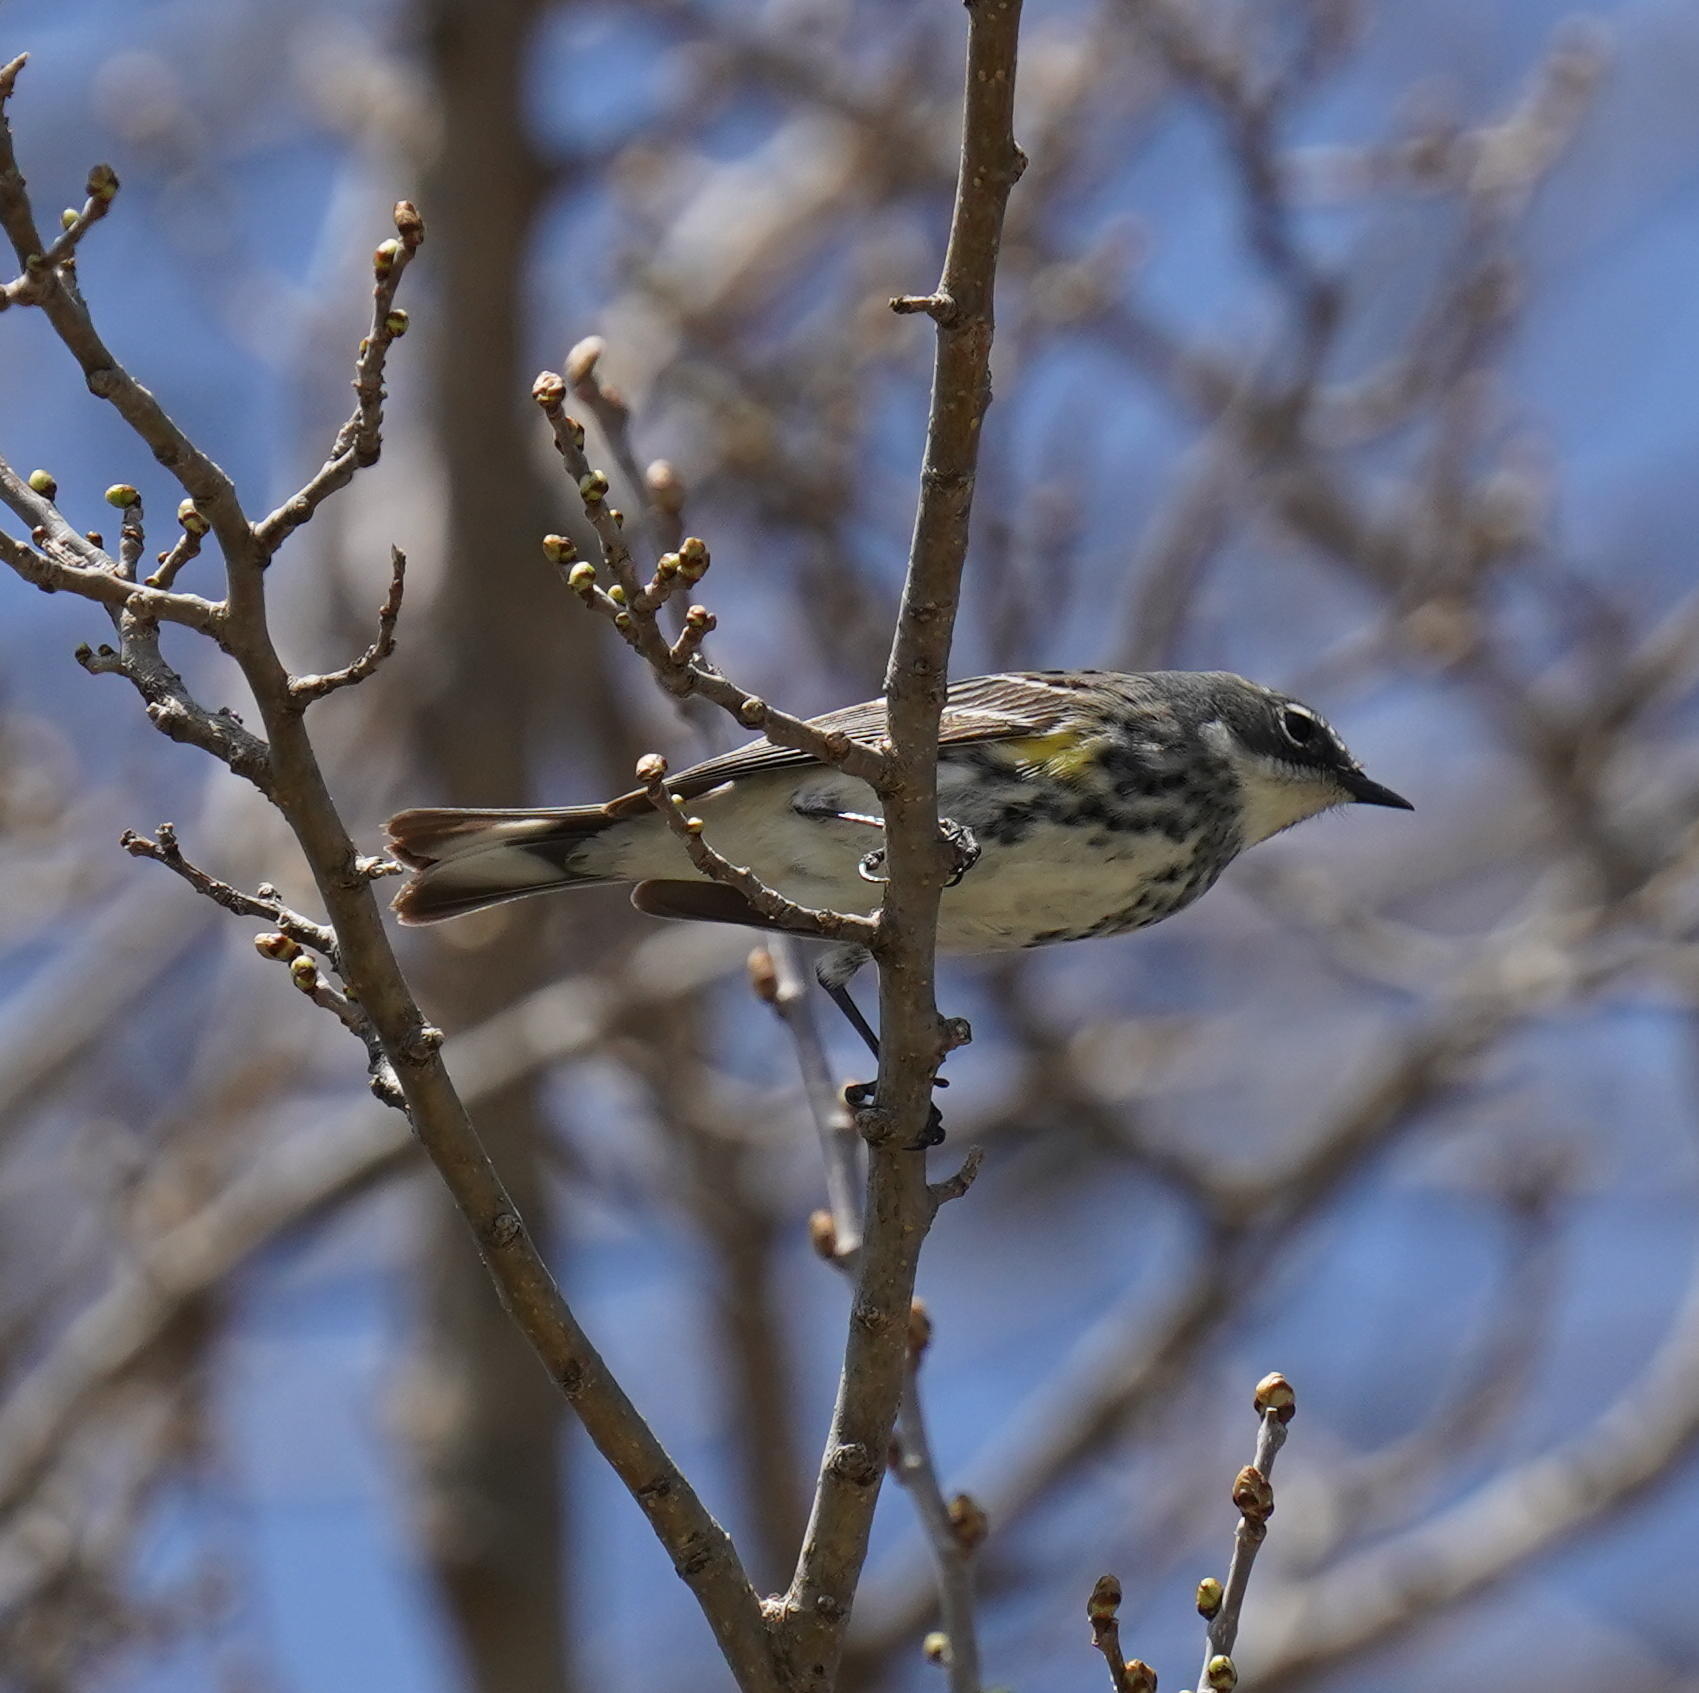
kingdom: Animalia
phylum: Chordata
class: Aves
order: Passeriformes
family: Parulidae
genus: Setophaga
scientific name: Setophaga coronata
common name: Myrtle warbler
